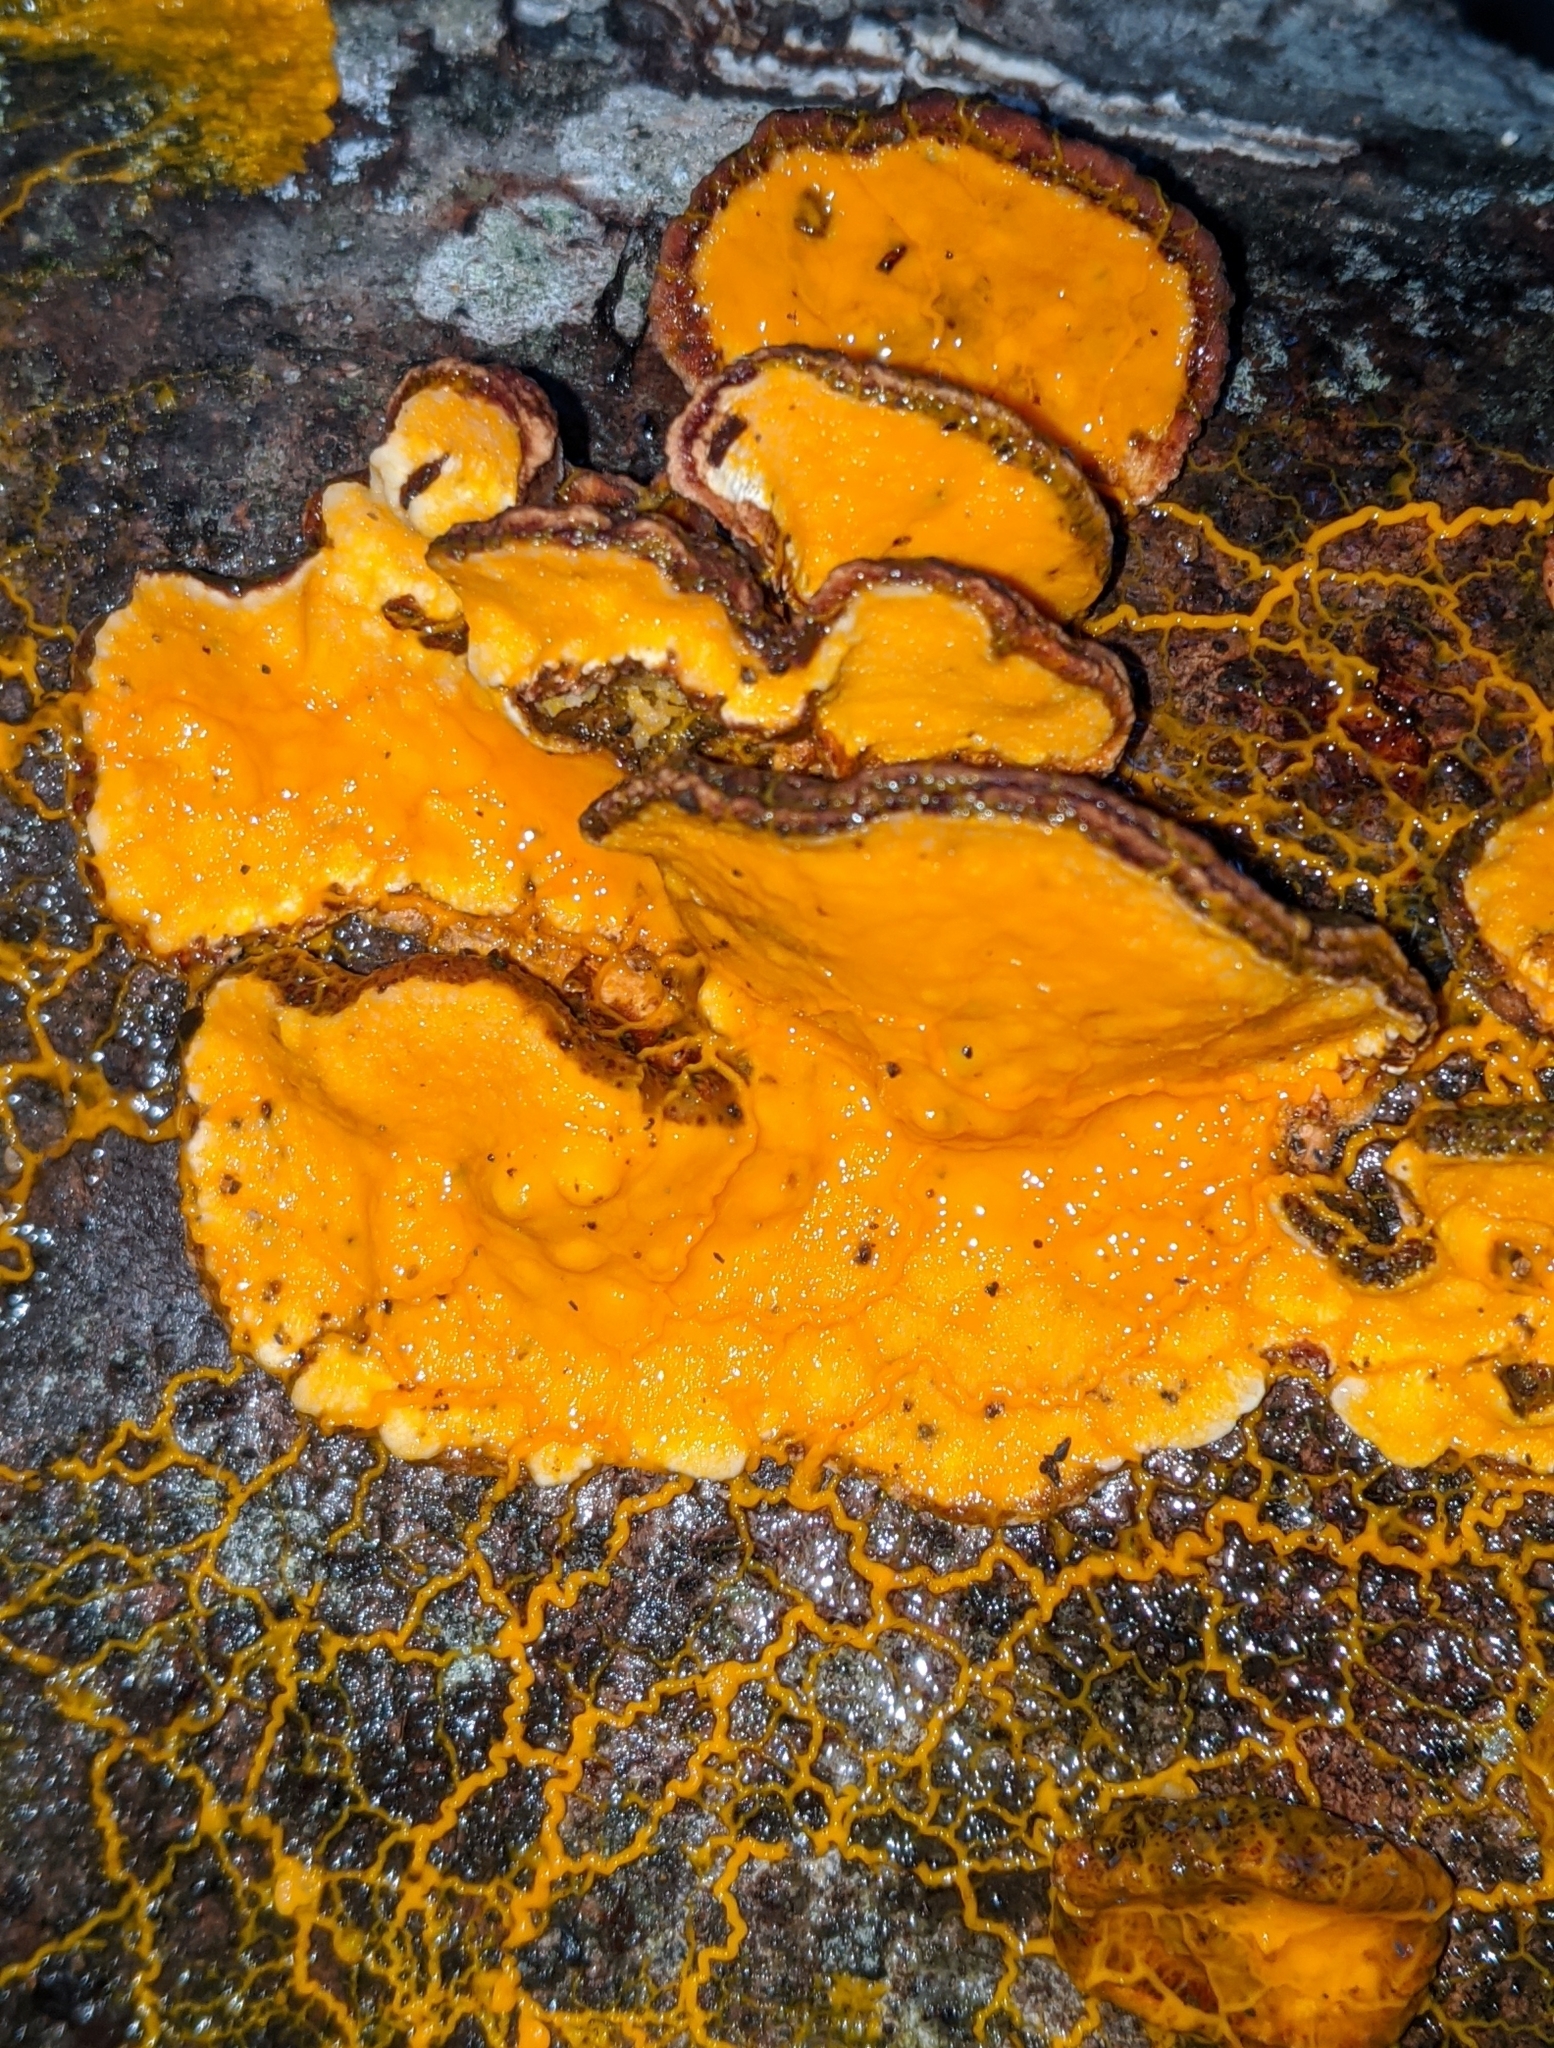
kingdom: Protozoa
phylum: Mycetozoa
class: Myxomycetes
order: Physarales
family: Physaraceae
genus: Badhamia
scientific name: Badhamia utricularis
